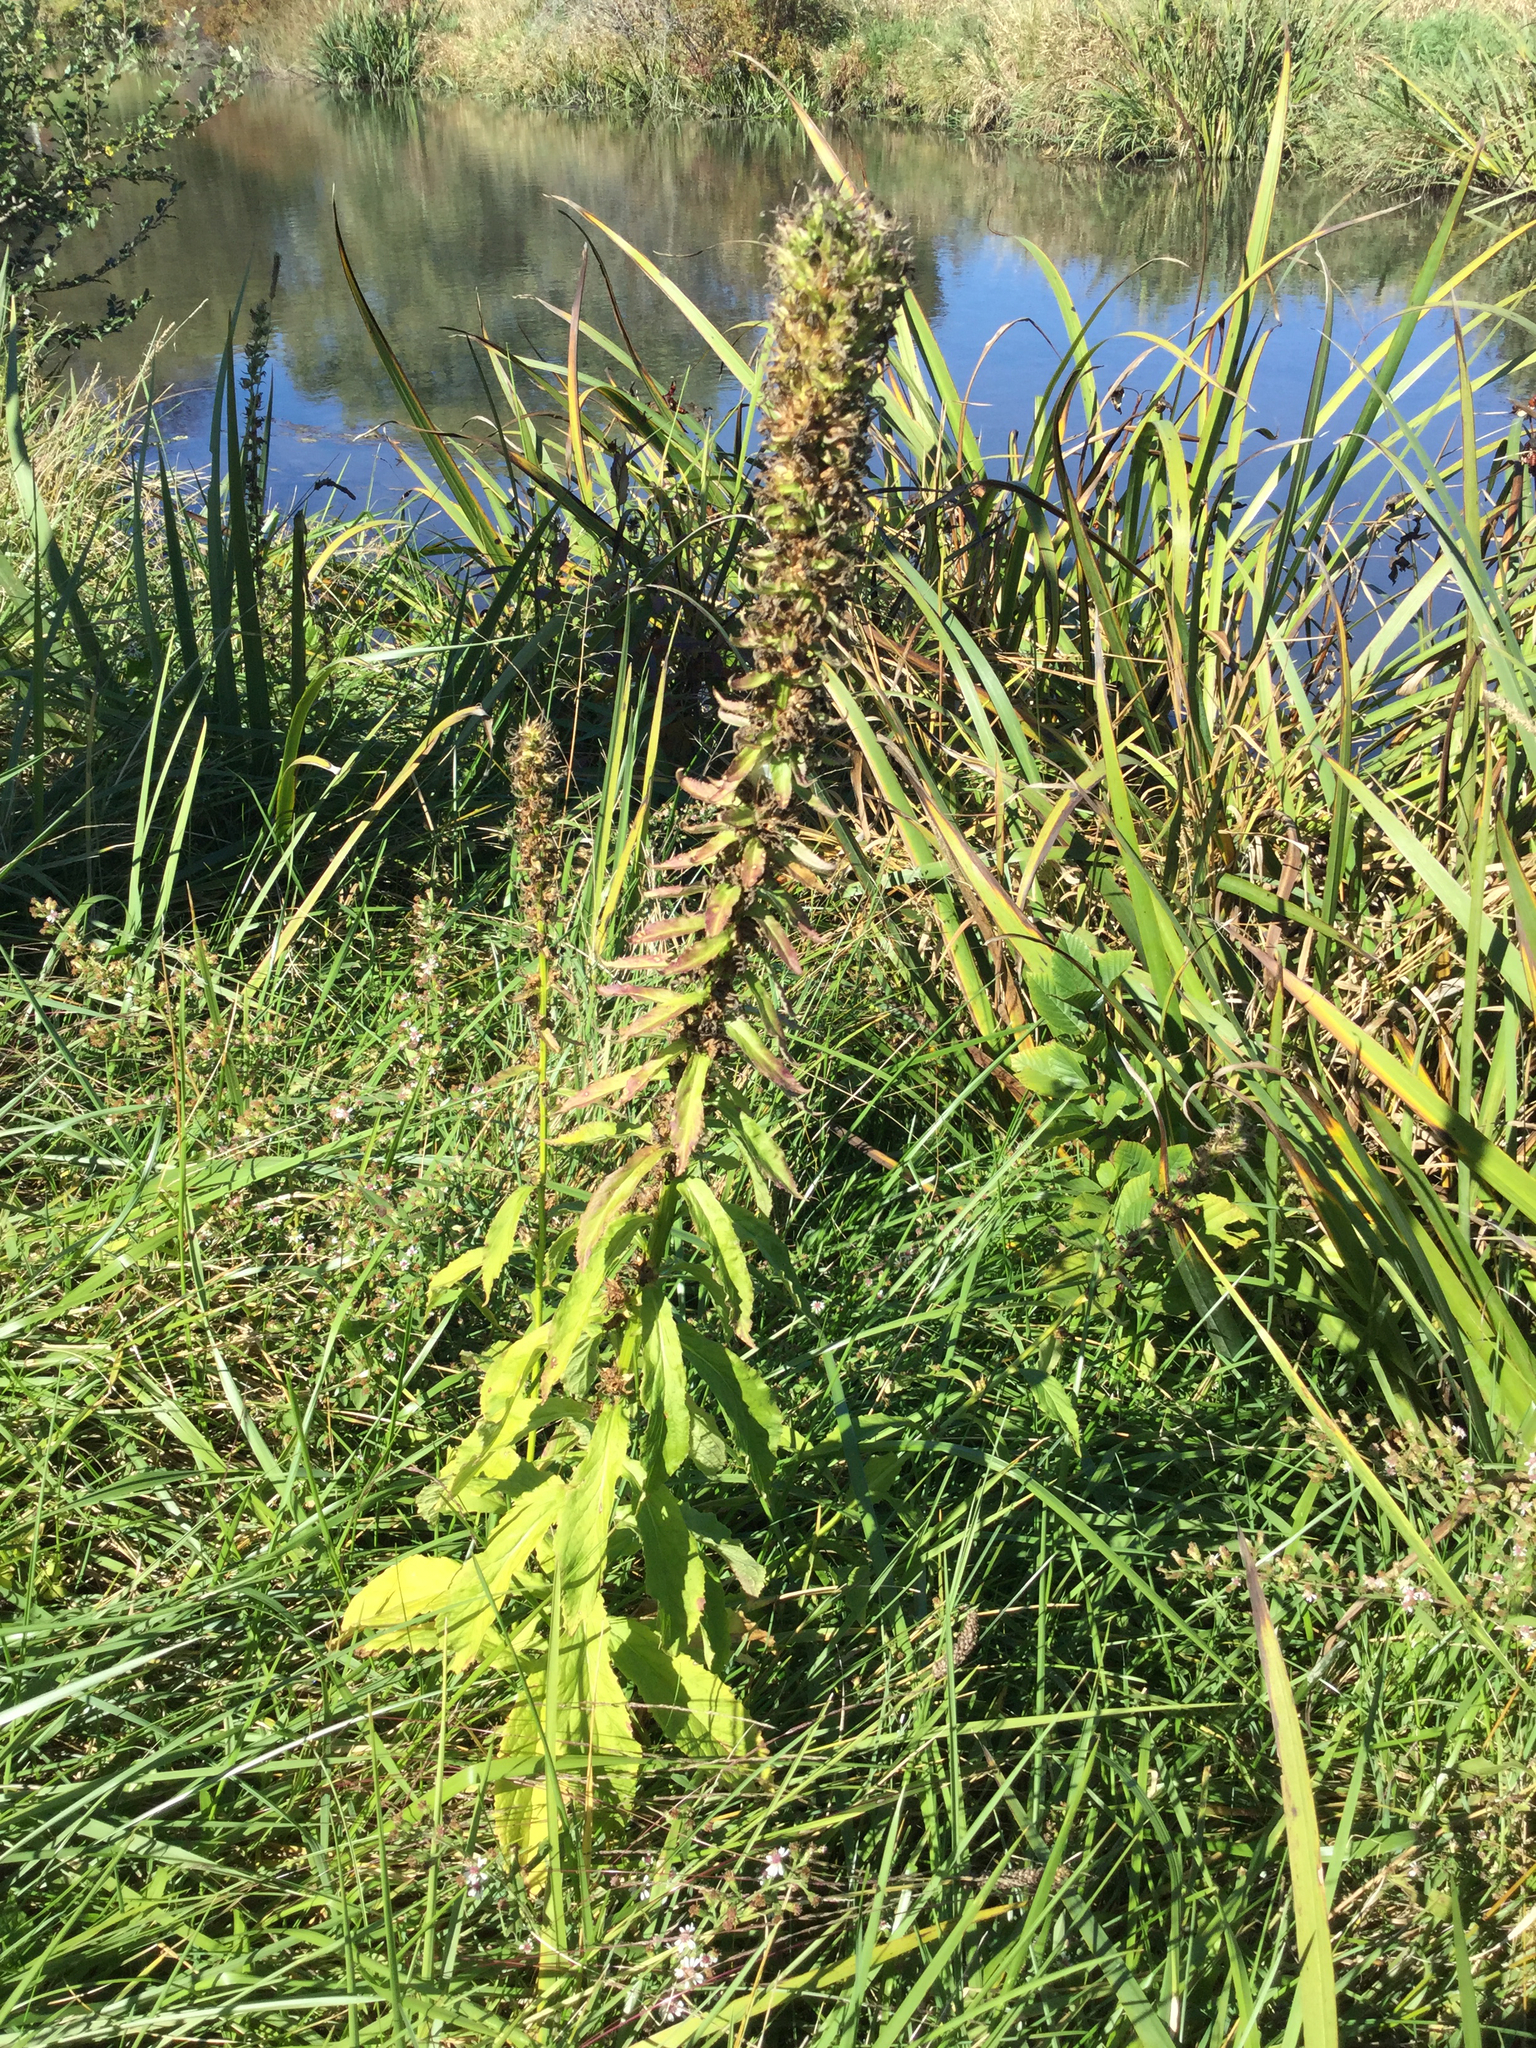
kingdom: Plantae
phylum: Tracheophyta
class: Magnoliopsida
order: Asterales
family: Campanulaceae
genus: Lobelia
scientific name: Lobelia siphilitica
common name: Great lobelia
